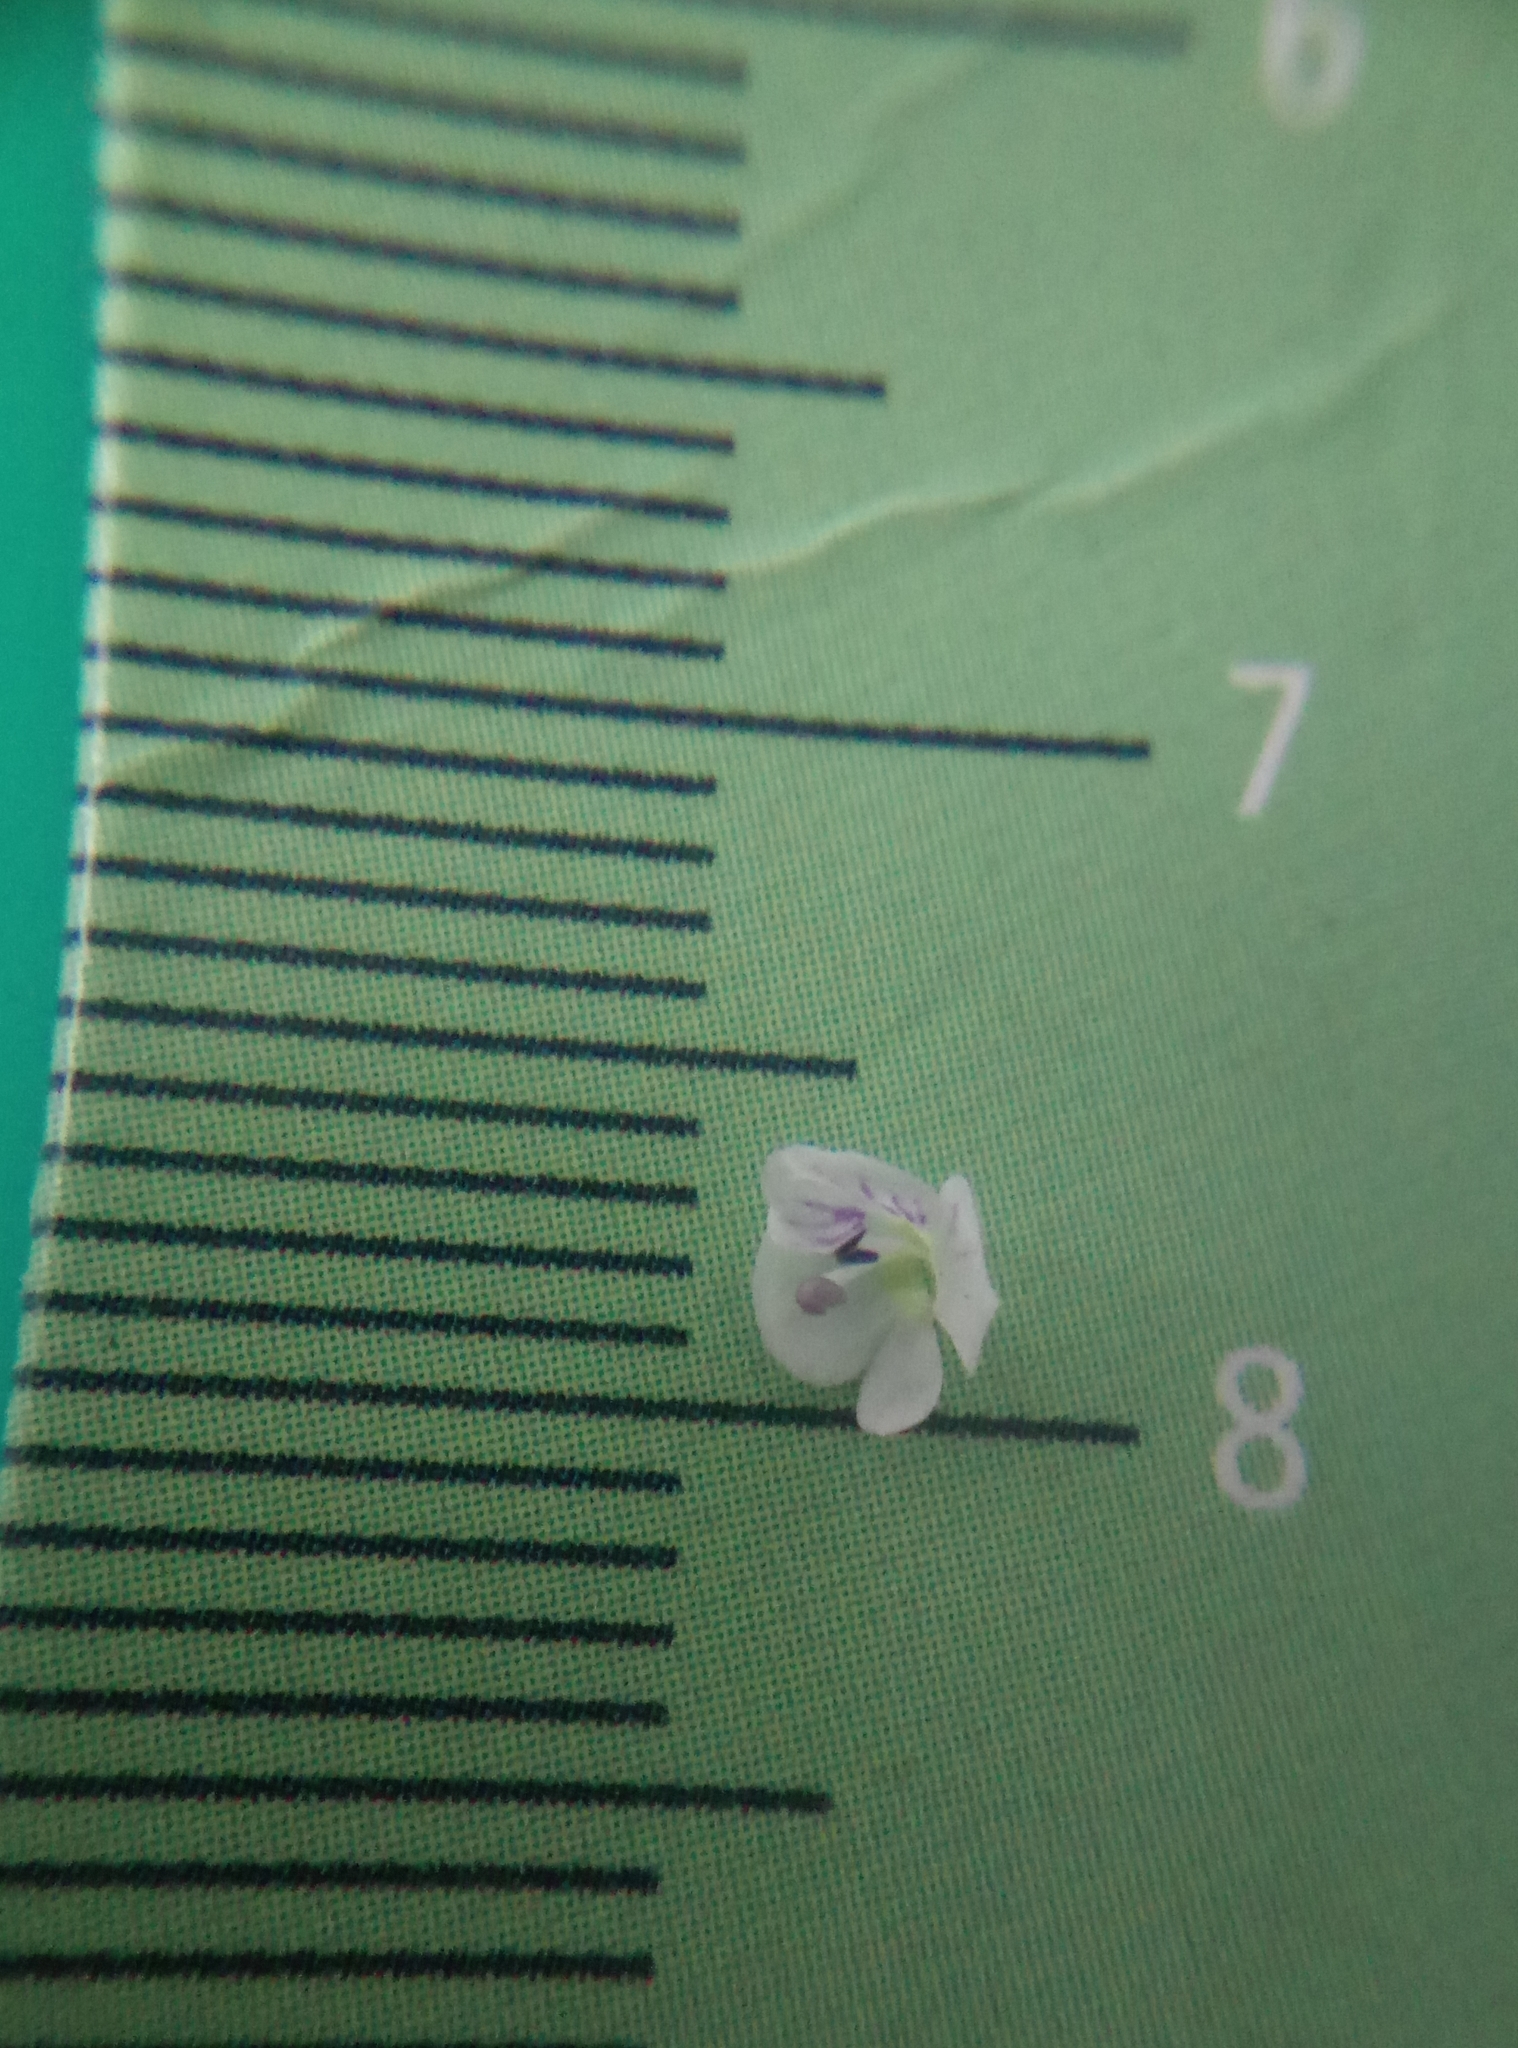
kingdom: Plantae
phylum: Tracheophyta
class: Magnoliopsida
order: Lamiales
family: Plantaginaceae
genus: Veronica
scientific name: Veronica serpyllifolia
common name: Thyme-leaved speedwell
